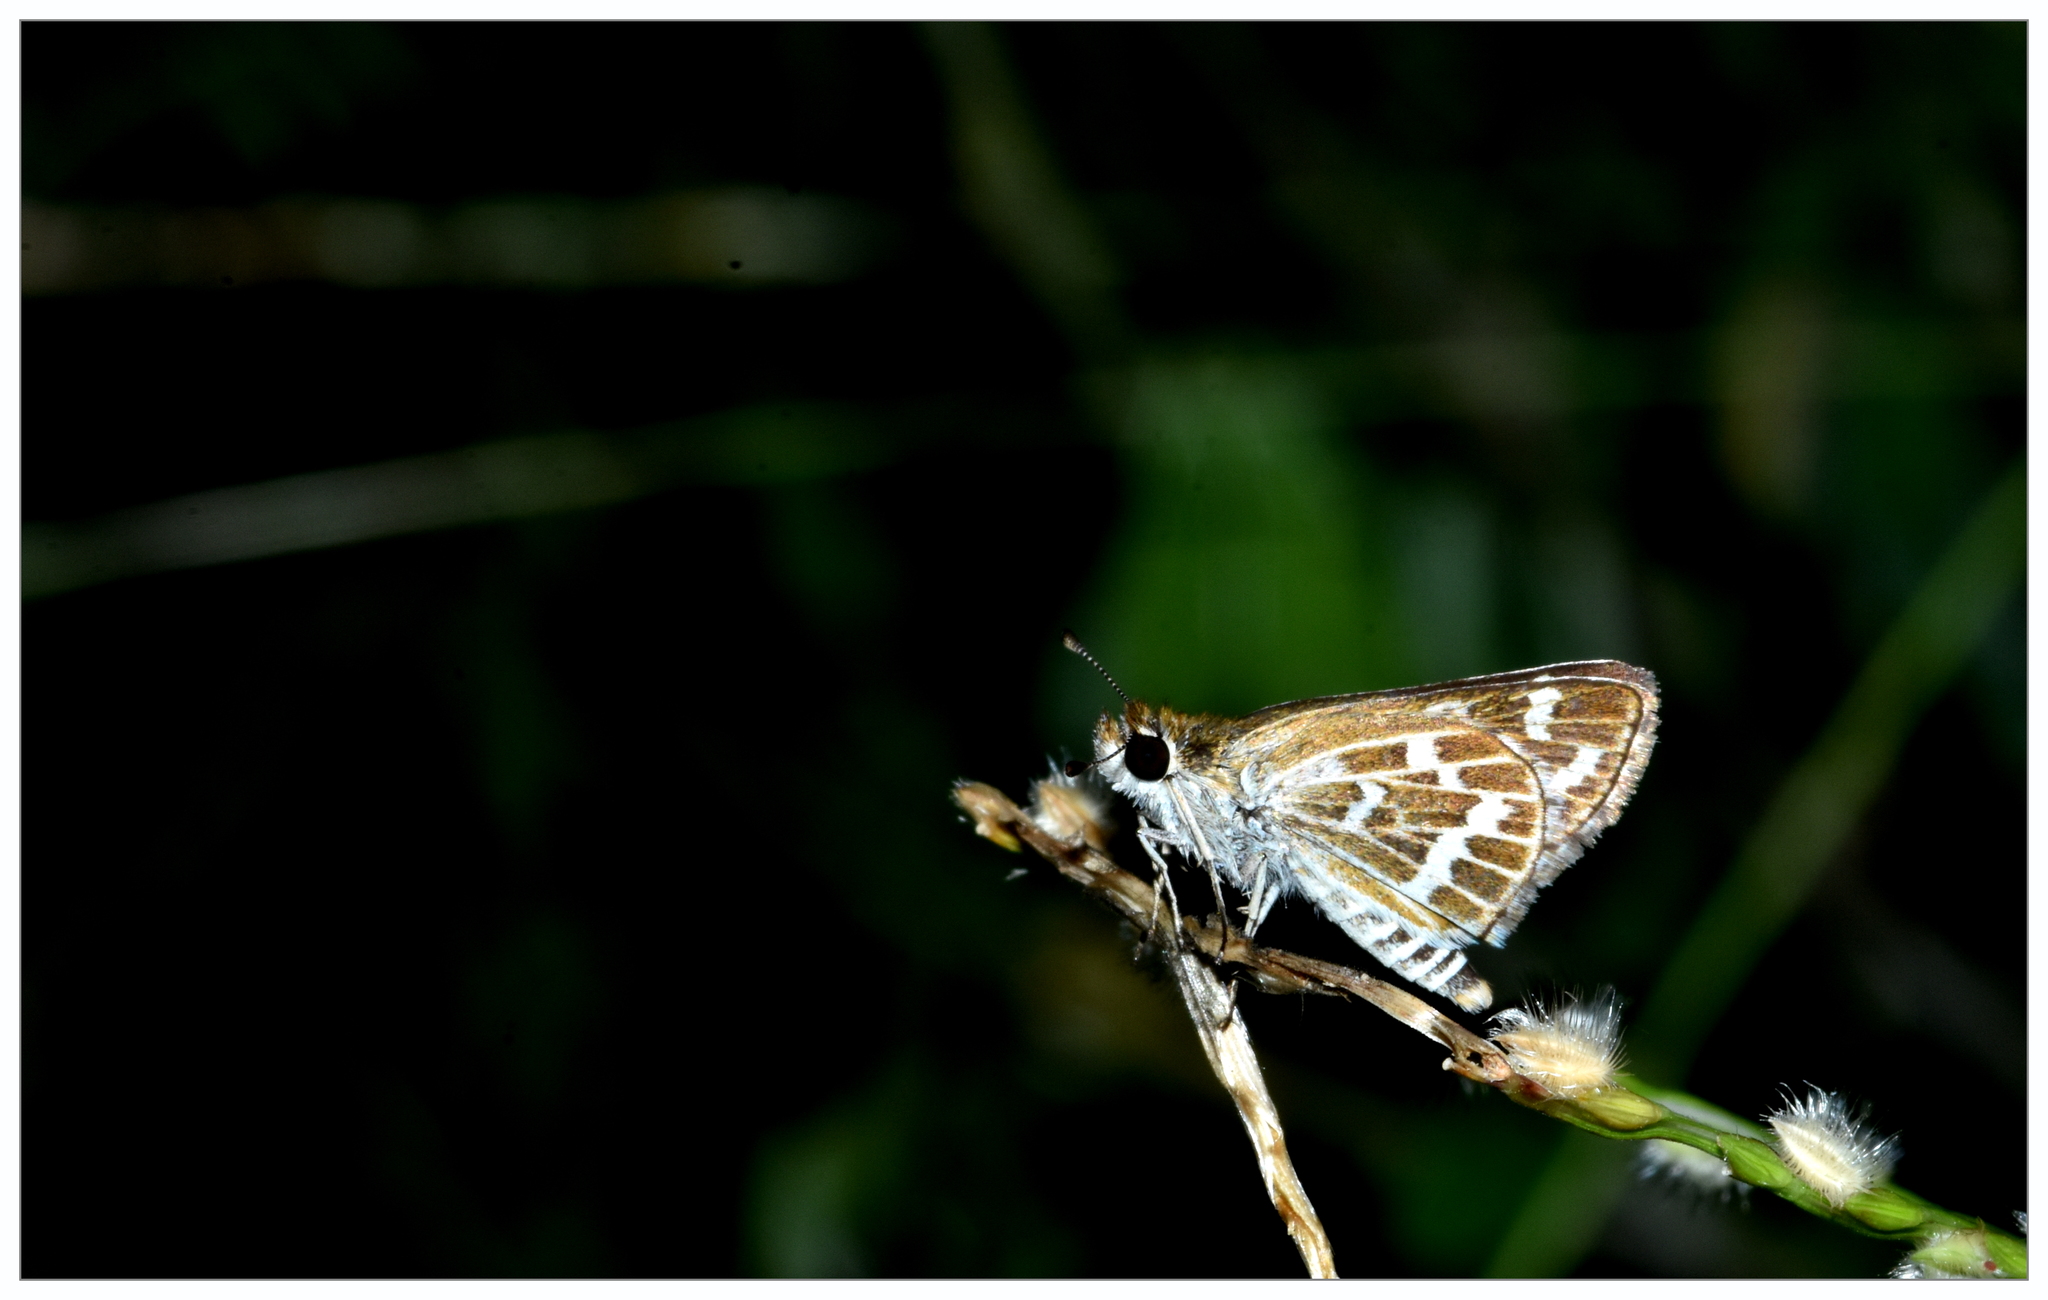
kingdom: Animalia
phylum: Arthropoda
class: Insecta
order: Lepidoptera
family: Hesperiidae
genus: Taractrocera
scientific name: Taractrocera maevius
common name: Common grass-dart
